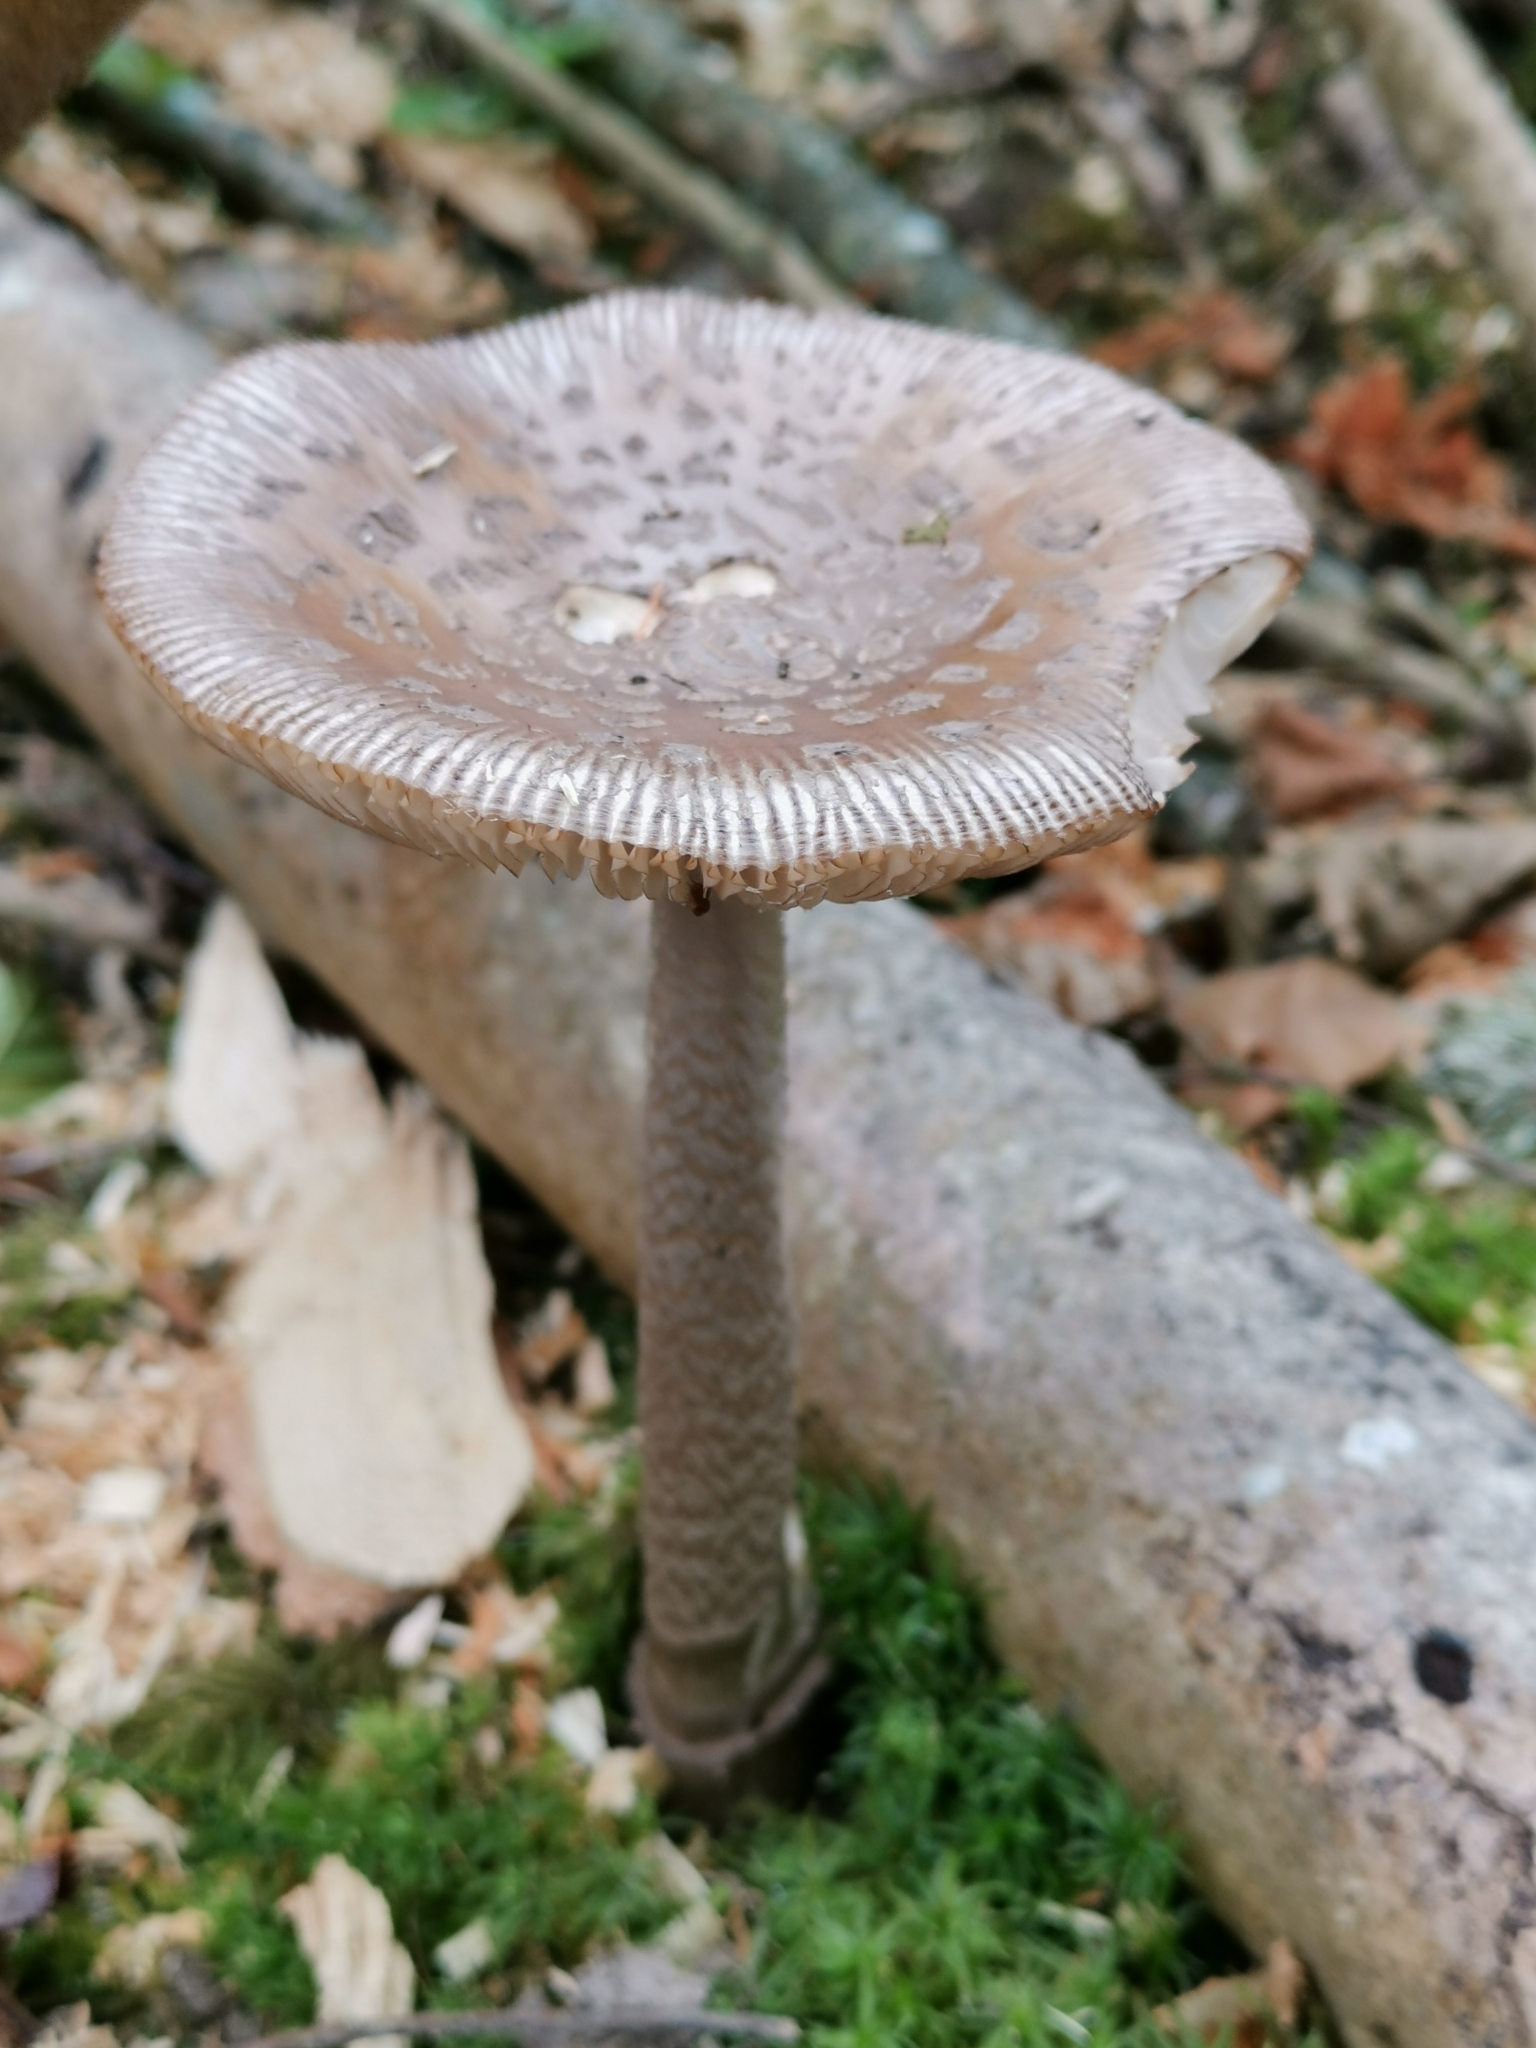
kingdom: Fungi
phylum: Basidiomycota
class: Agaricomycetes
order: Agaricales
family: Amanitaceae
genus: Amanita
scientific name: Amanita ceciliae
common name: Snakeskin grisette
